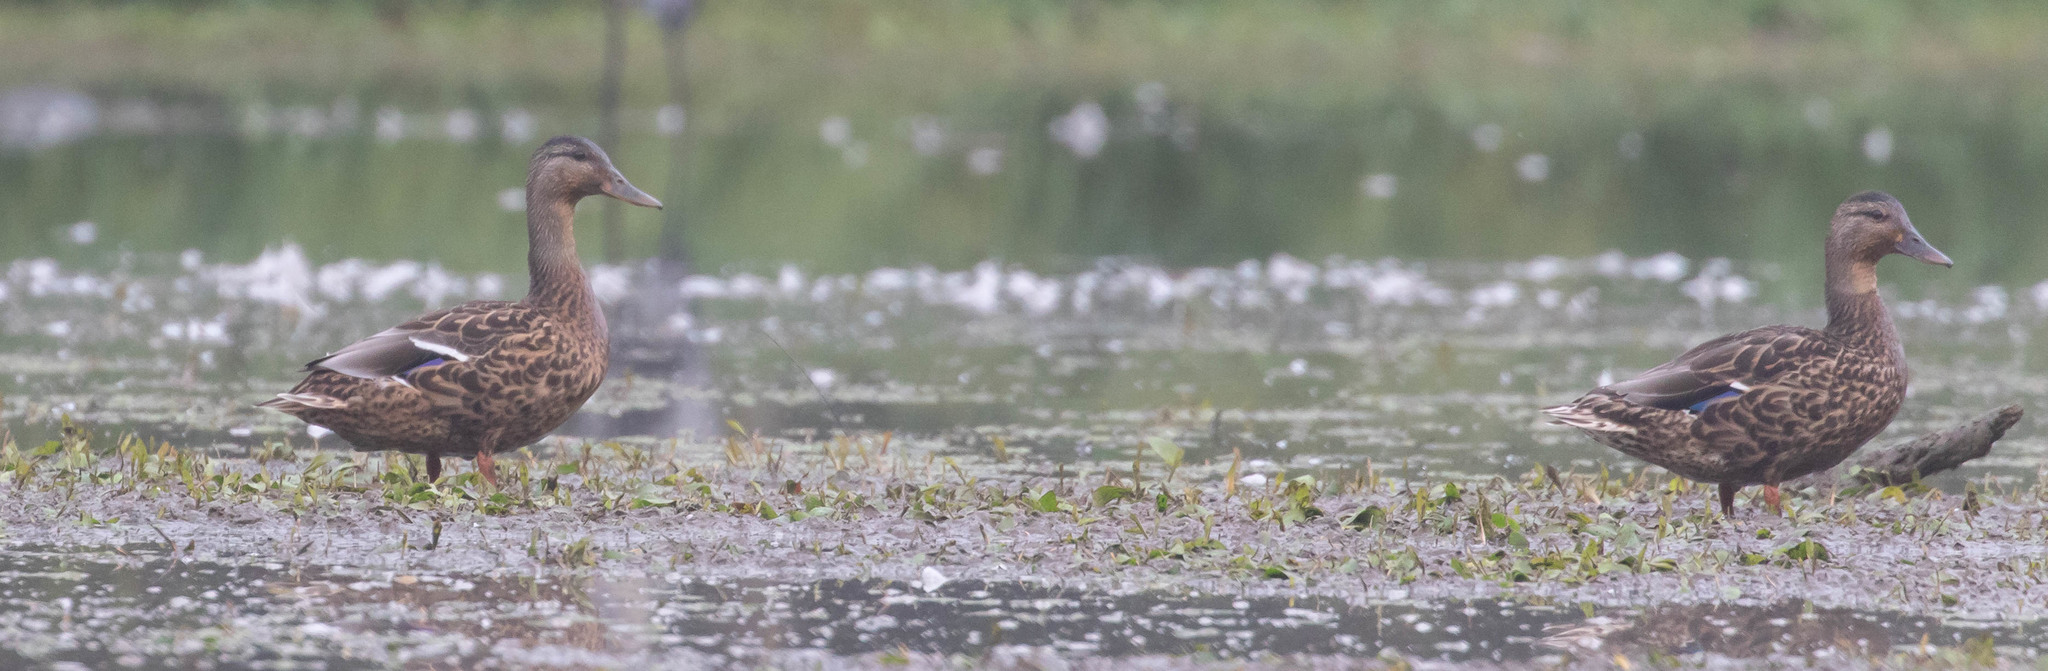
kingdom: Animalia
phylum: Chordata
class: Aves
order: Anseriformes
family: Anatidae
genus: Anas
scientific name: Anas platyrhynchos
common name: Mallard
